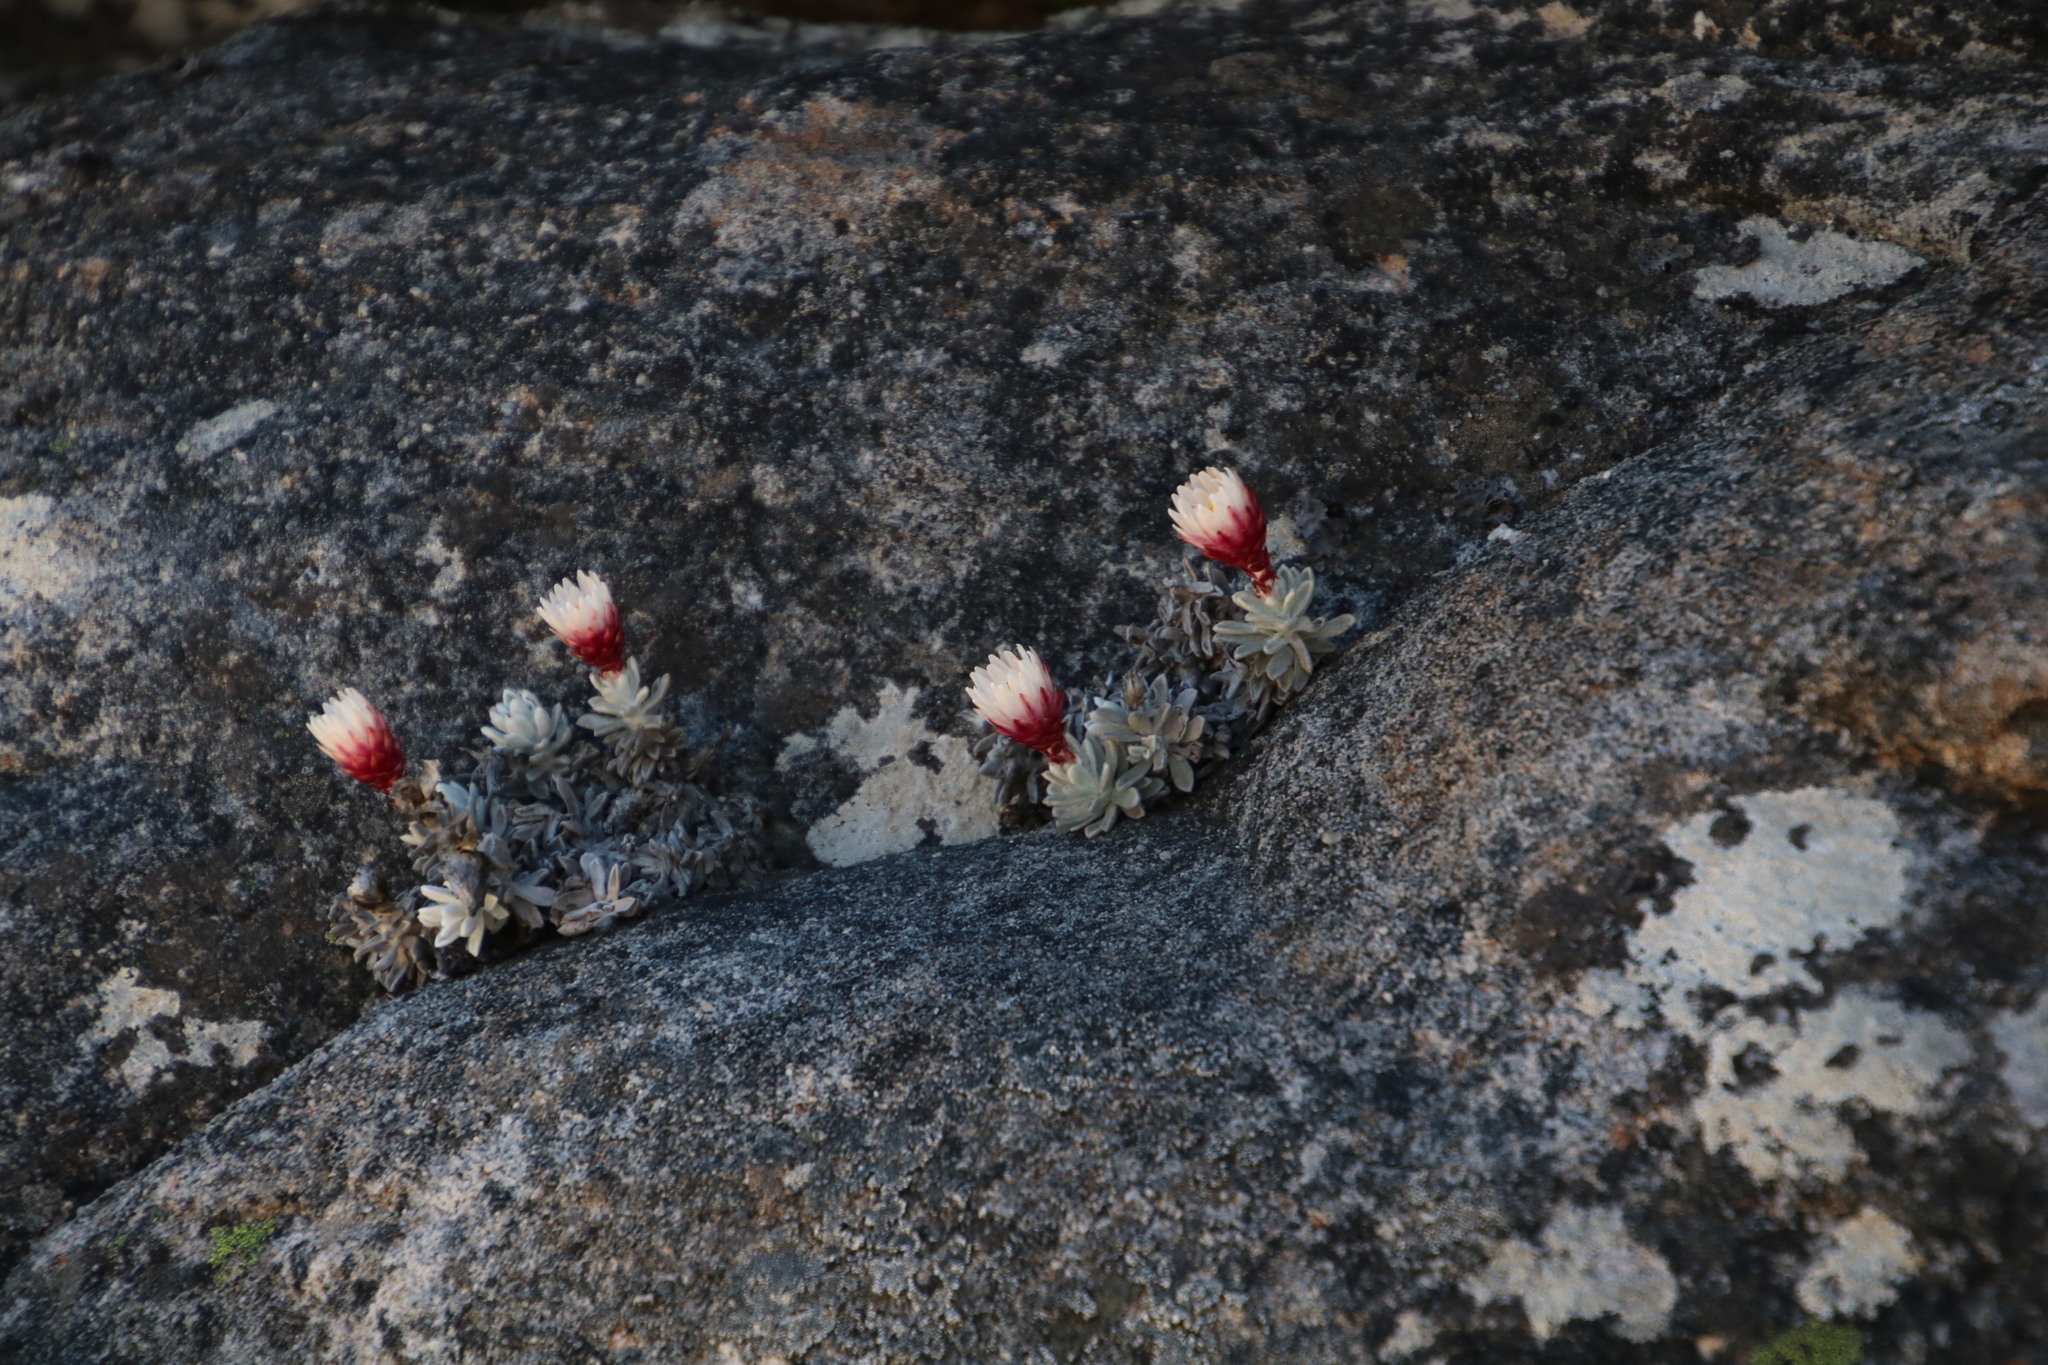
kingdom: Plantae
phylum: Tracheophyta
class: Magnoliopsida
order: Asterales
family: Asteraceae
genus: Syncarpha
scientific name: Syncarpha dykei
